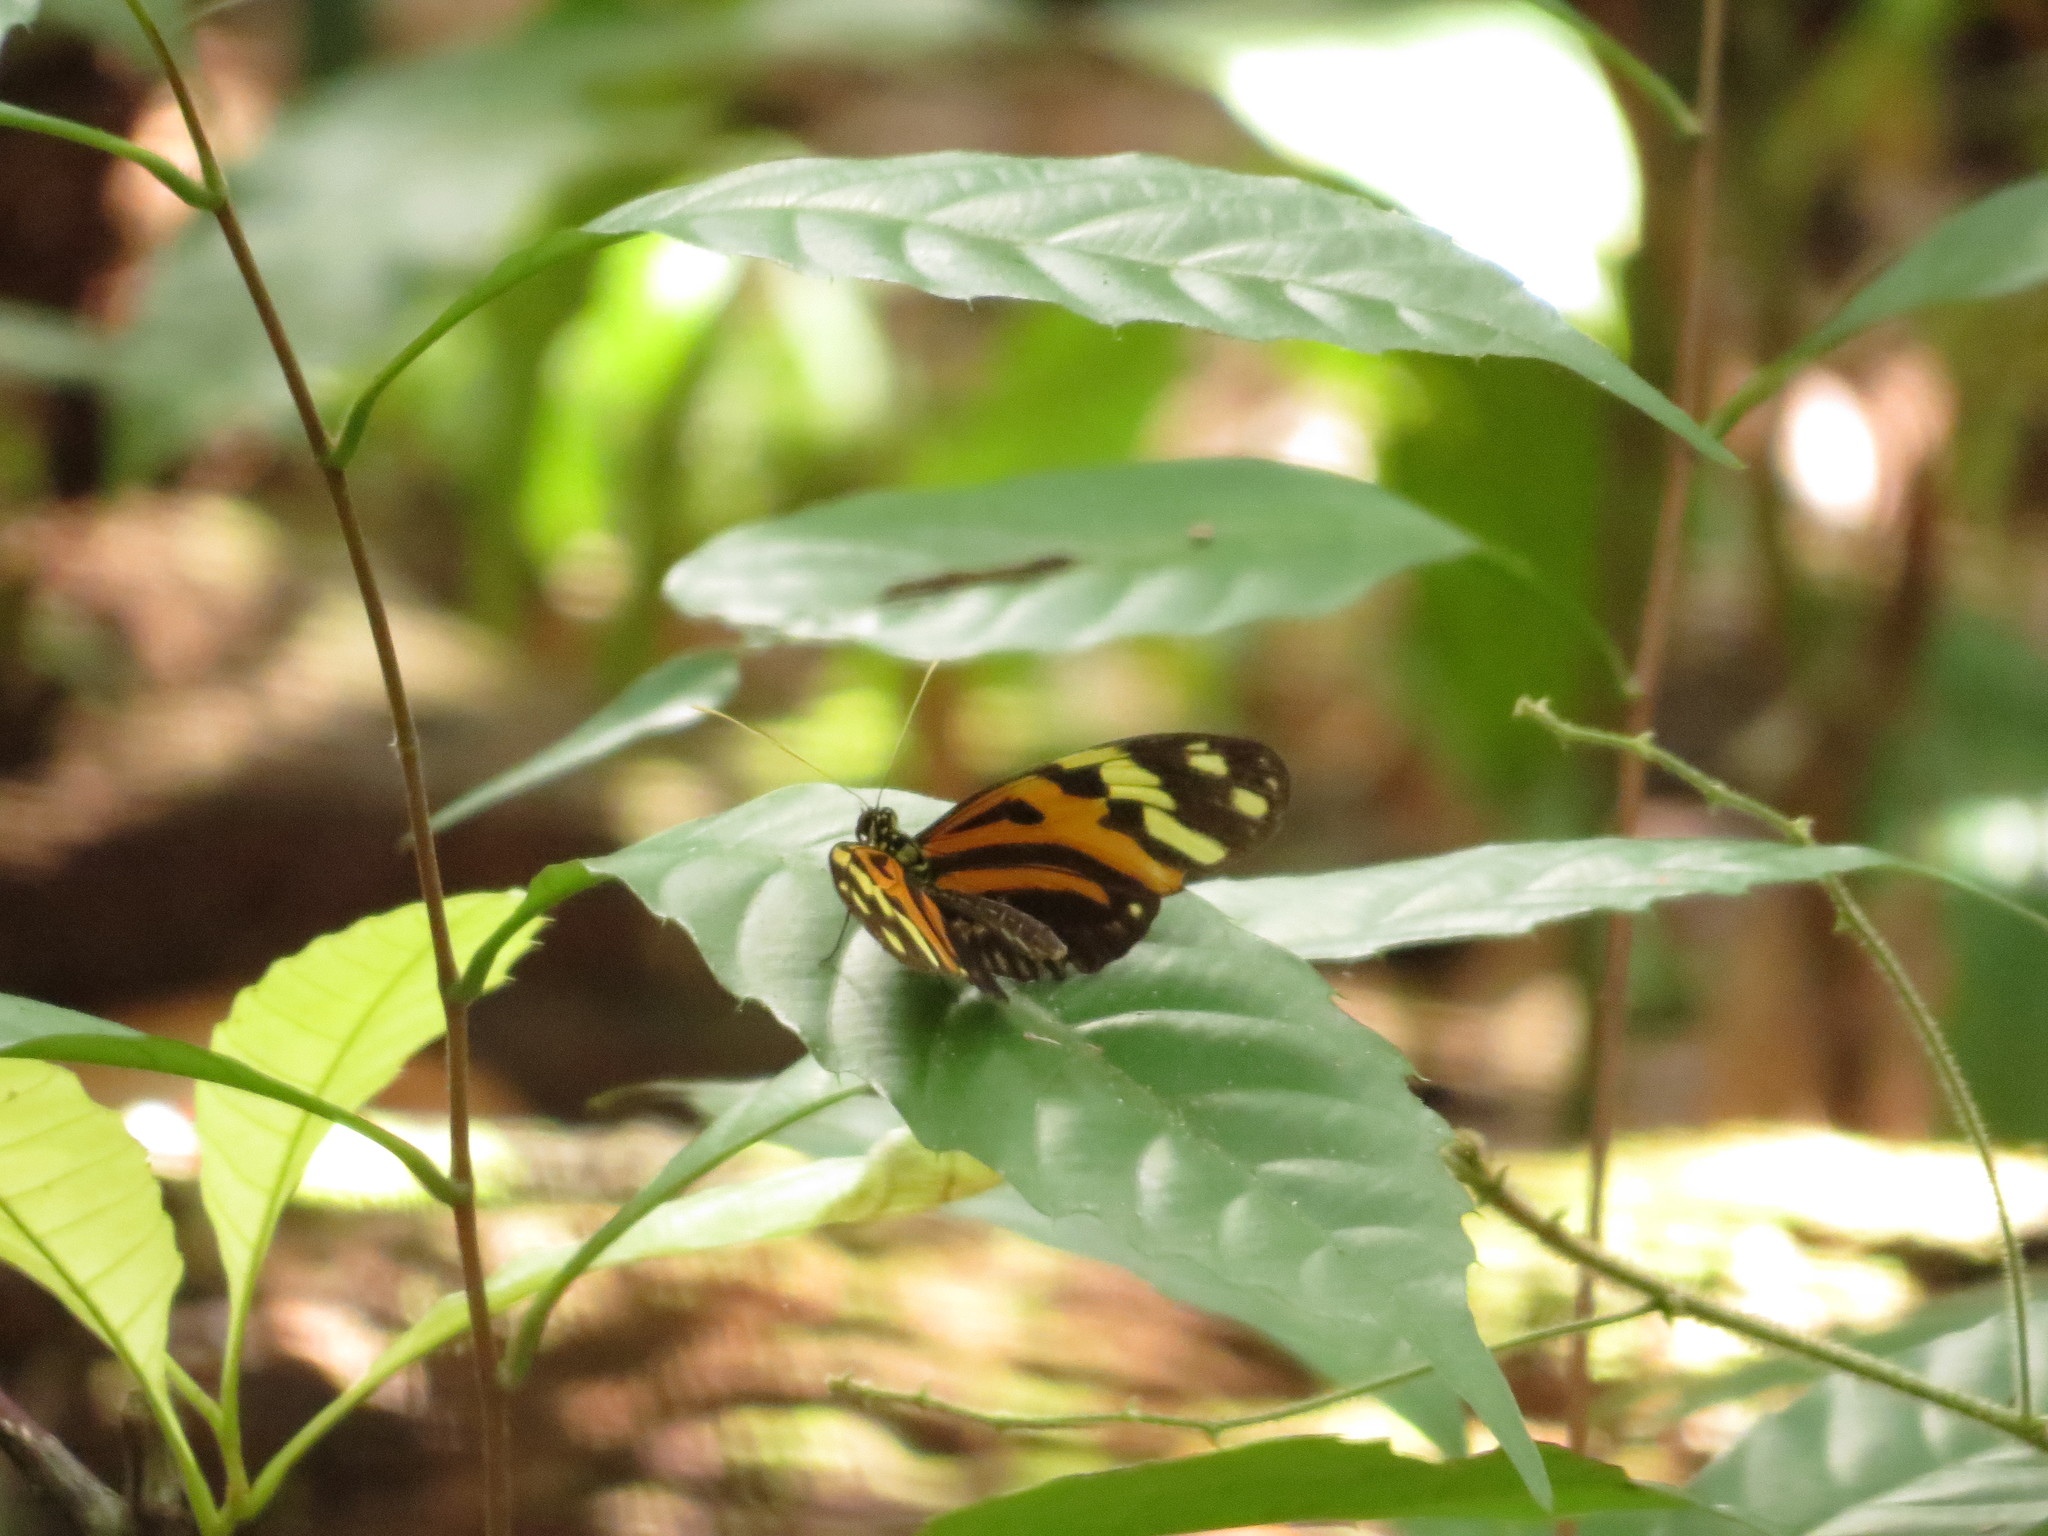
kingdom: Animalia
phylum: Arthropoda
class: Insecta
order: Lepidoptera
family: Nymphalidae
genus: Heliconius
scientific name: Heliconius numatus
